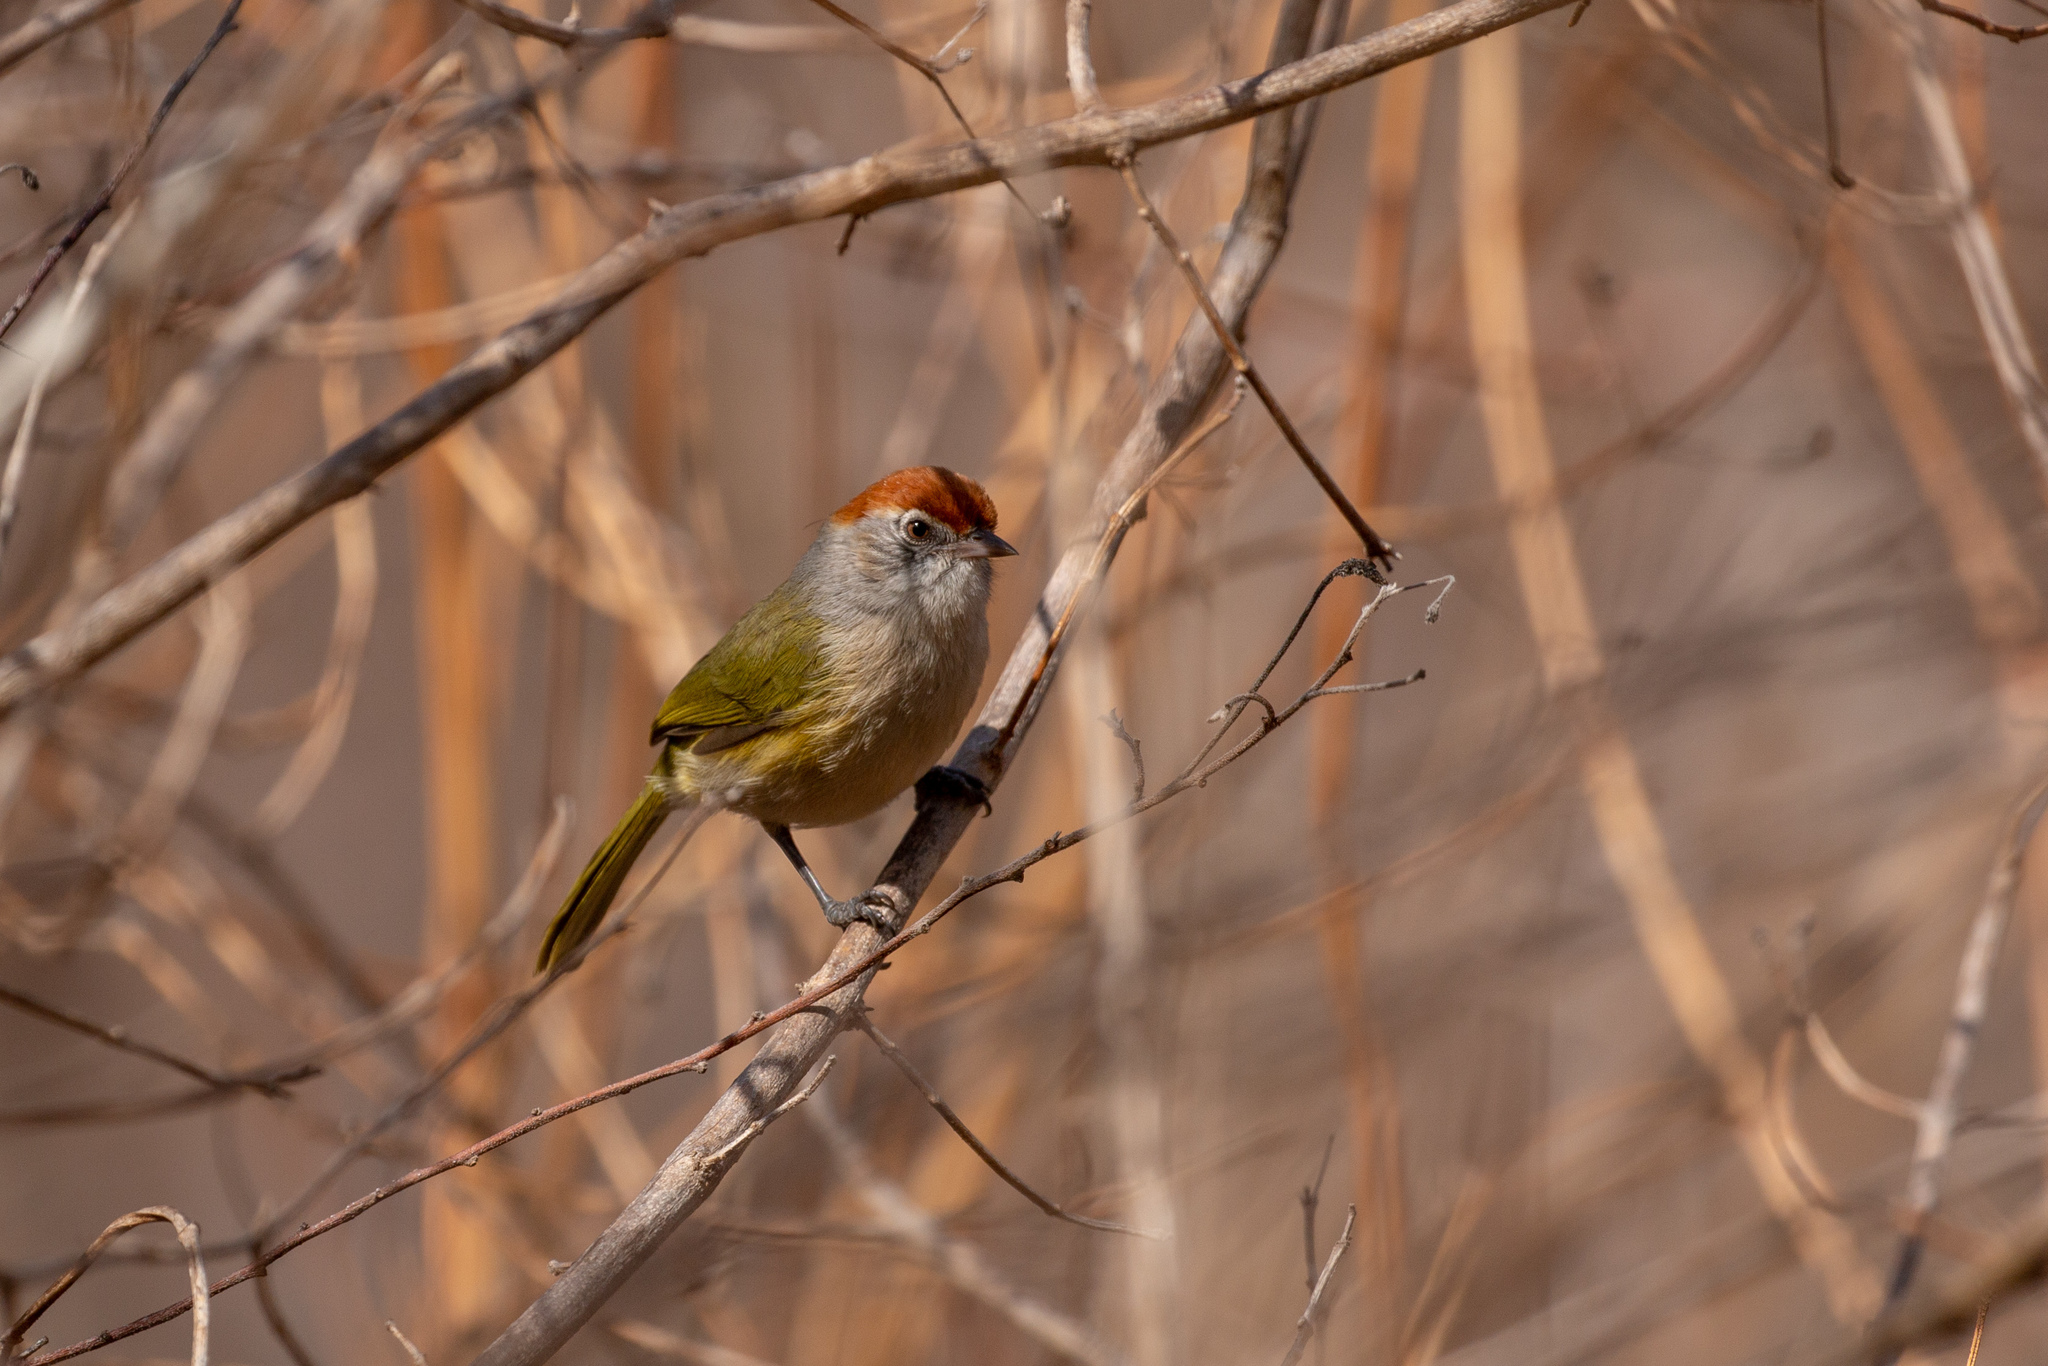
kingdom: Animalia
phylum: Chordata
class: Aves
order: Passeriformes
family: Vireonidae
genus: Hylophilus
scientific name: Hylophilus amaurocephalus
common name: Grey-eyed greenlet
